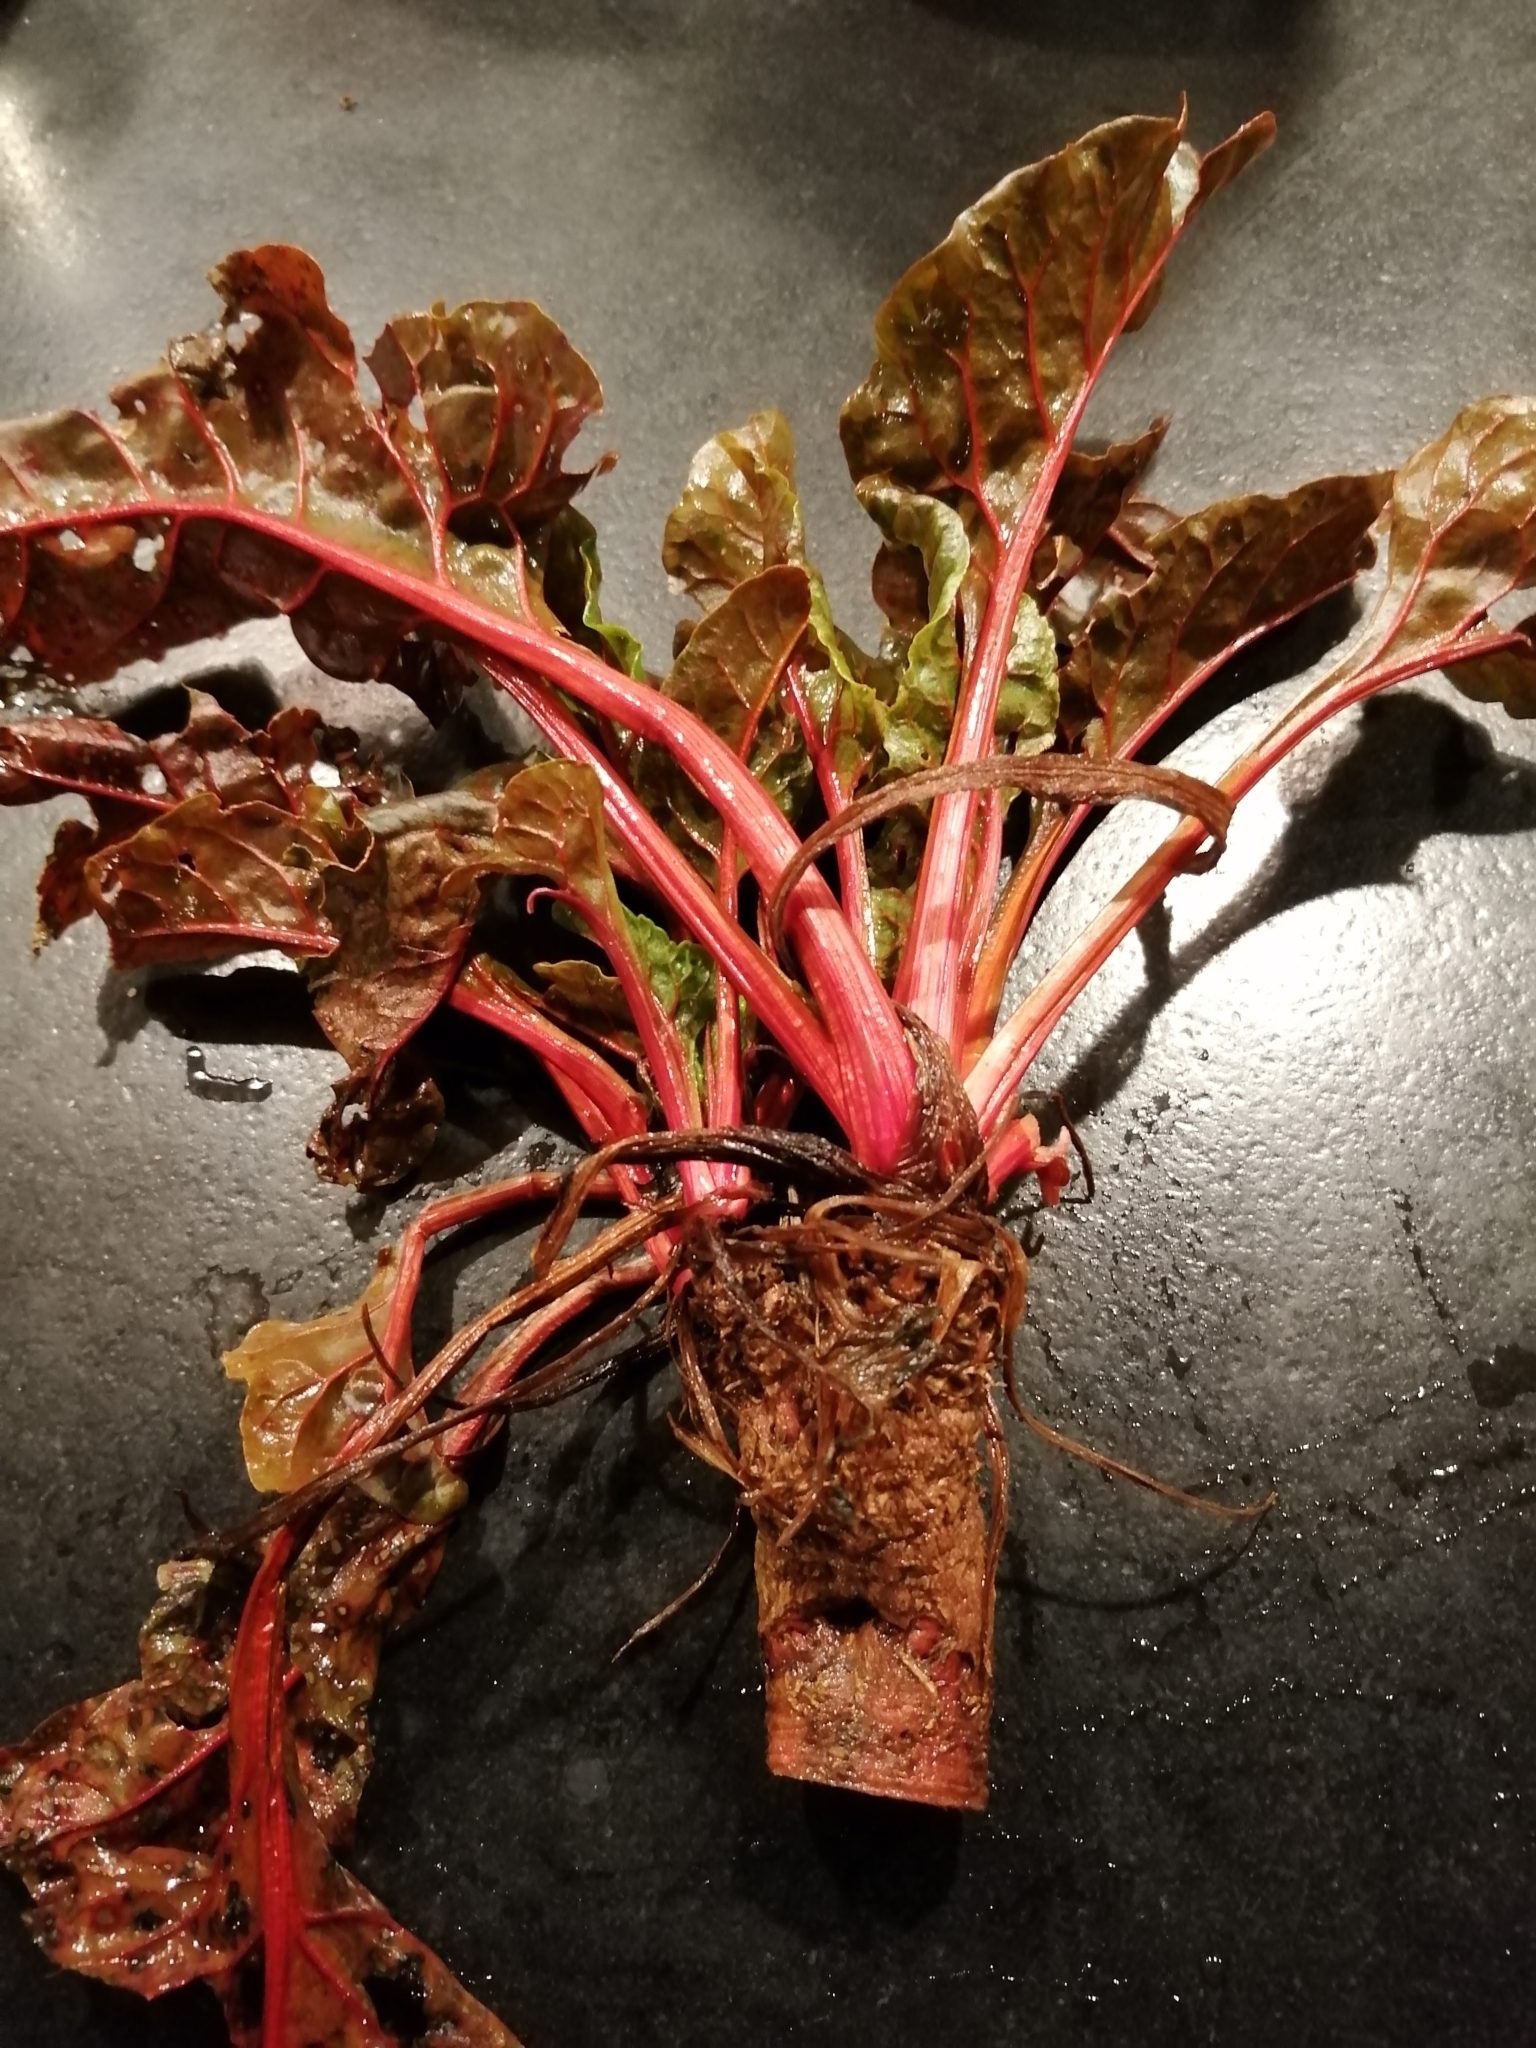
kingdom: Plantae
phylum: Tracheophyta
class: Magnoliopsida
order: Caryophyllales
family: Amaranthaceae
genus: Beta
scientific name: Beta vulgaris
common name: Beet
